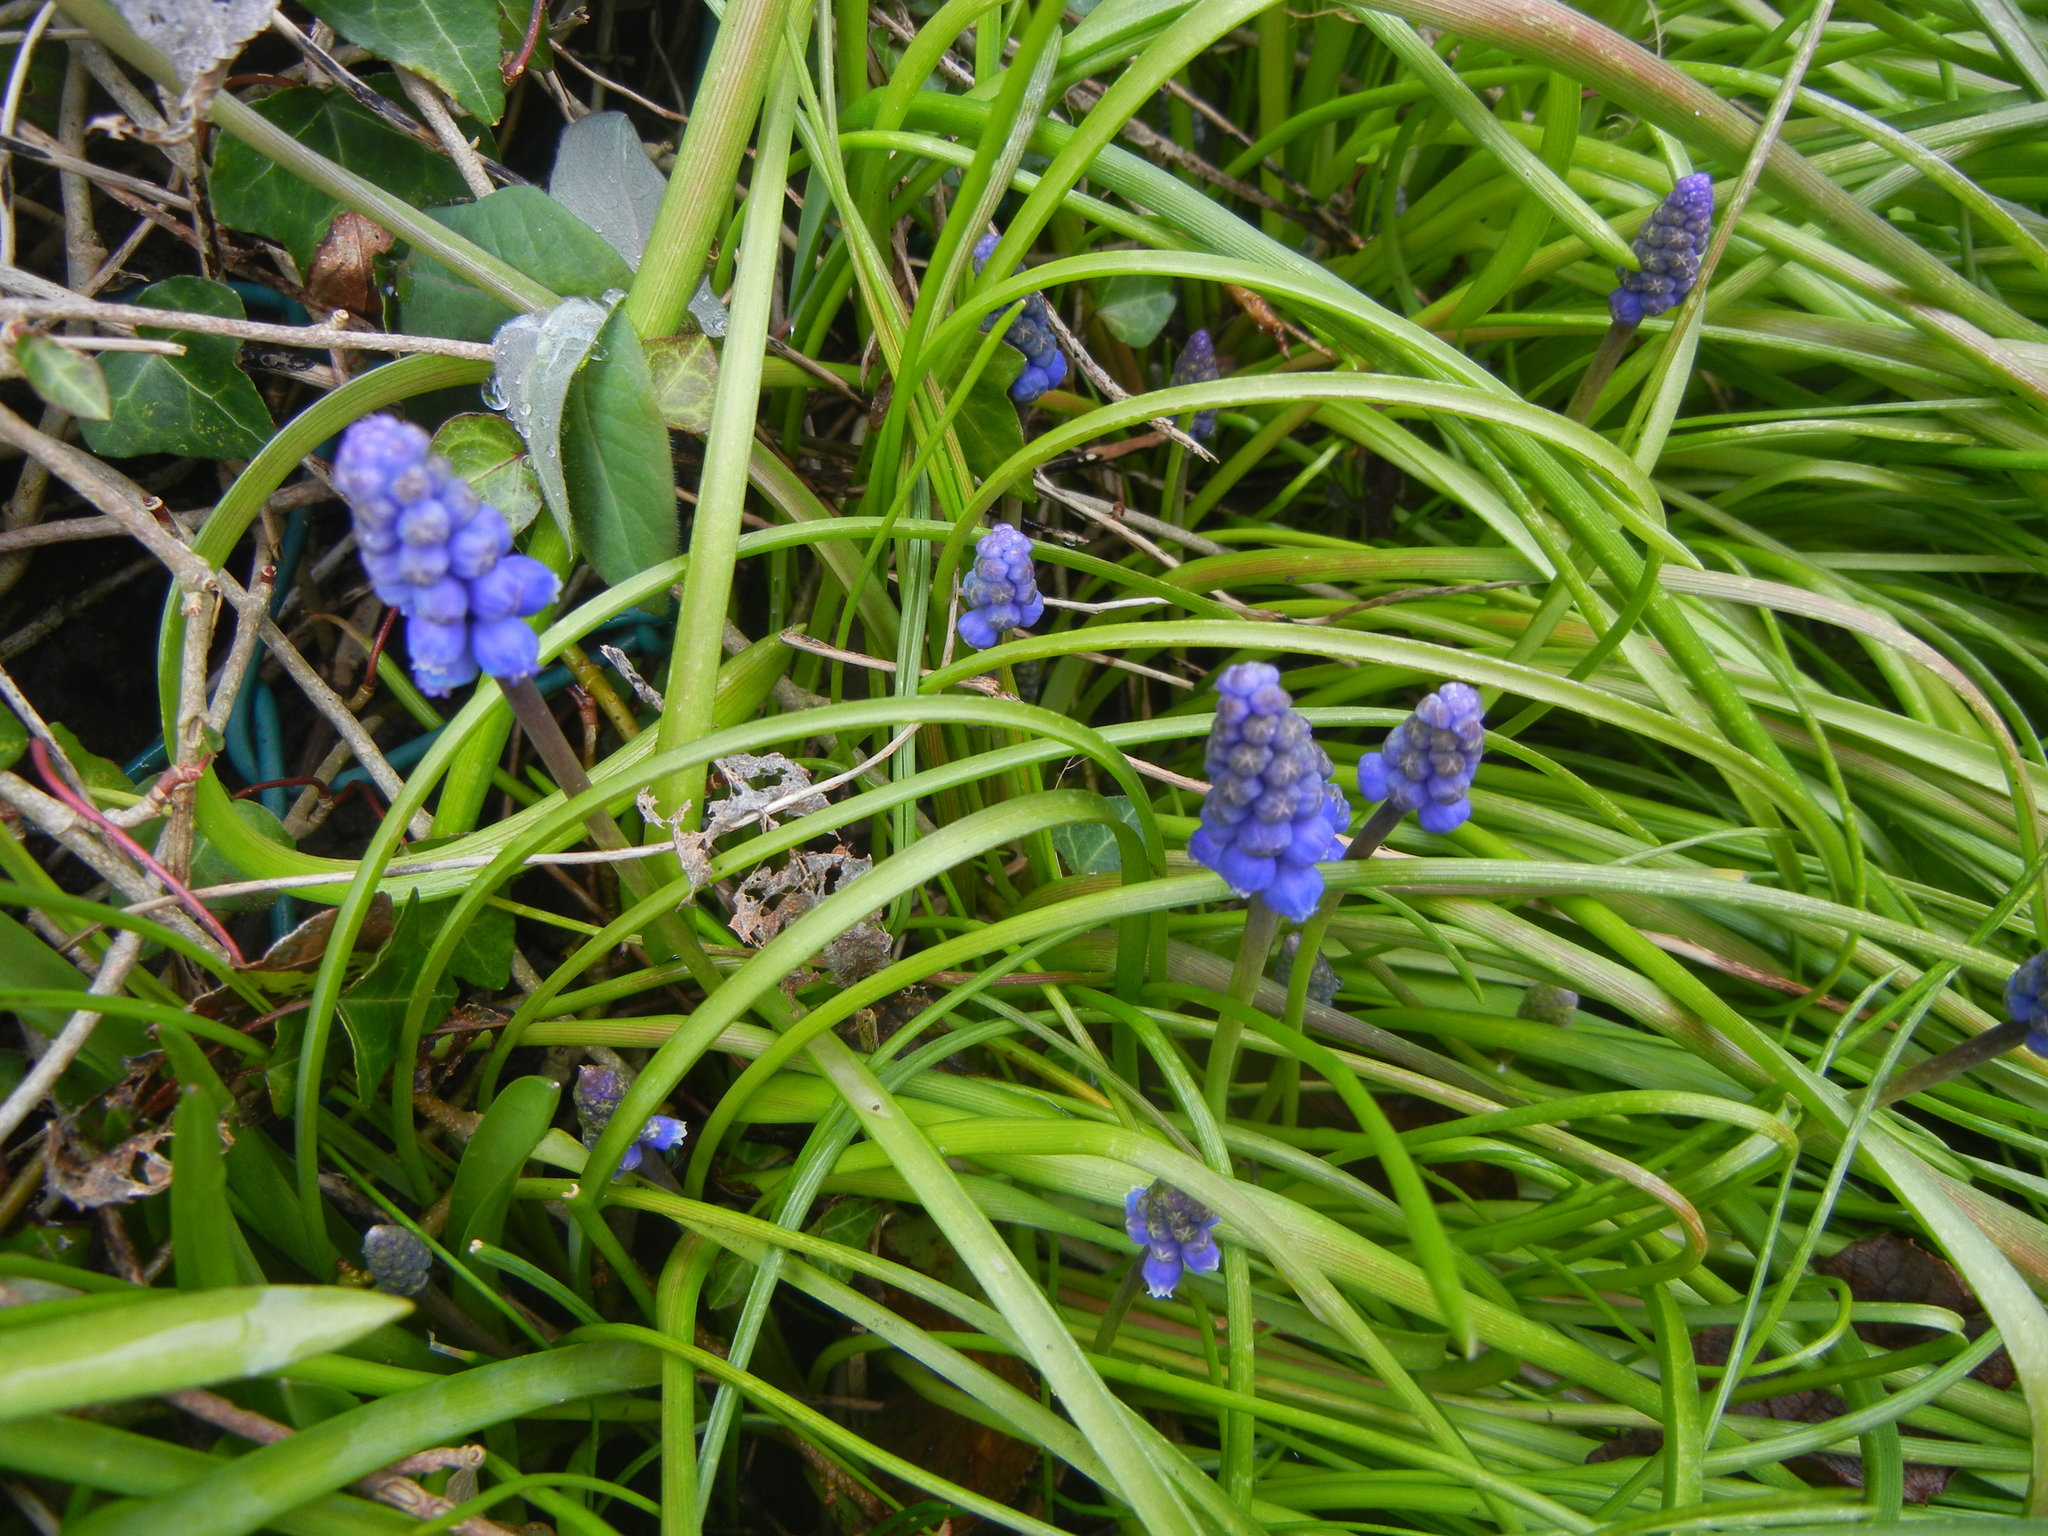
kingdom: Plantae
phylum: Tracheophyta
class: Liliopsida
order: Asparagales
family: Asparagaceae
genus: Muscari
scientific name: Muscari armeniacum
